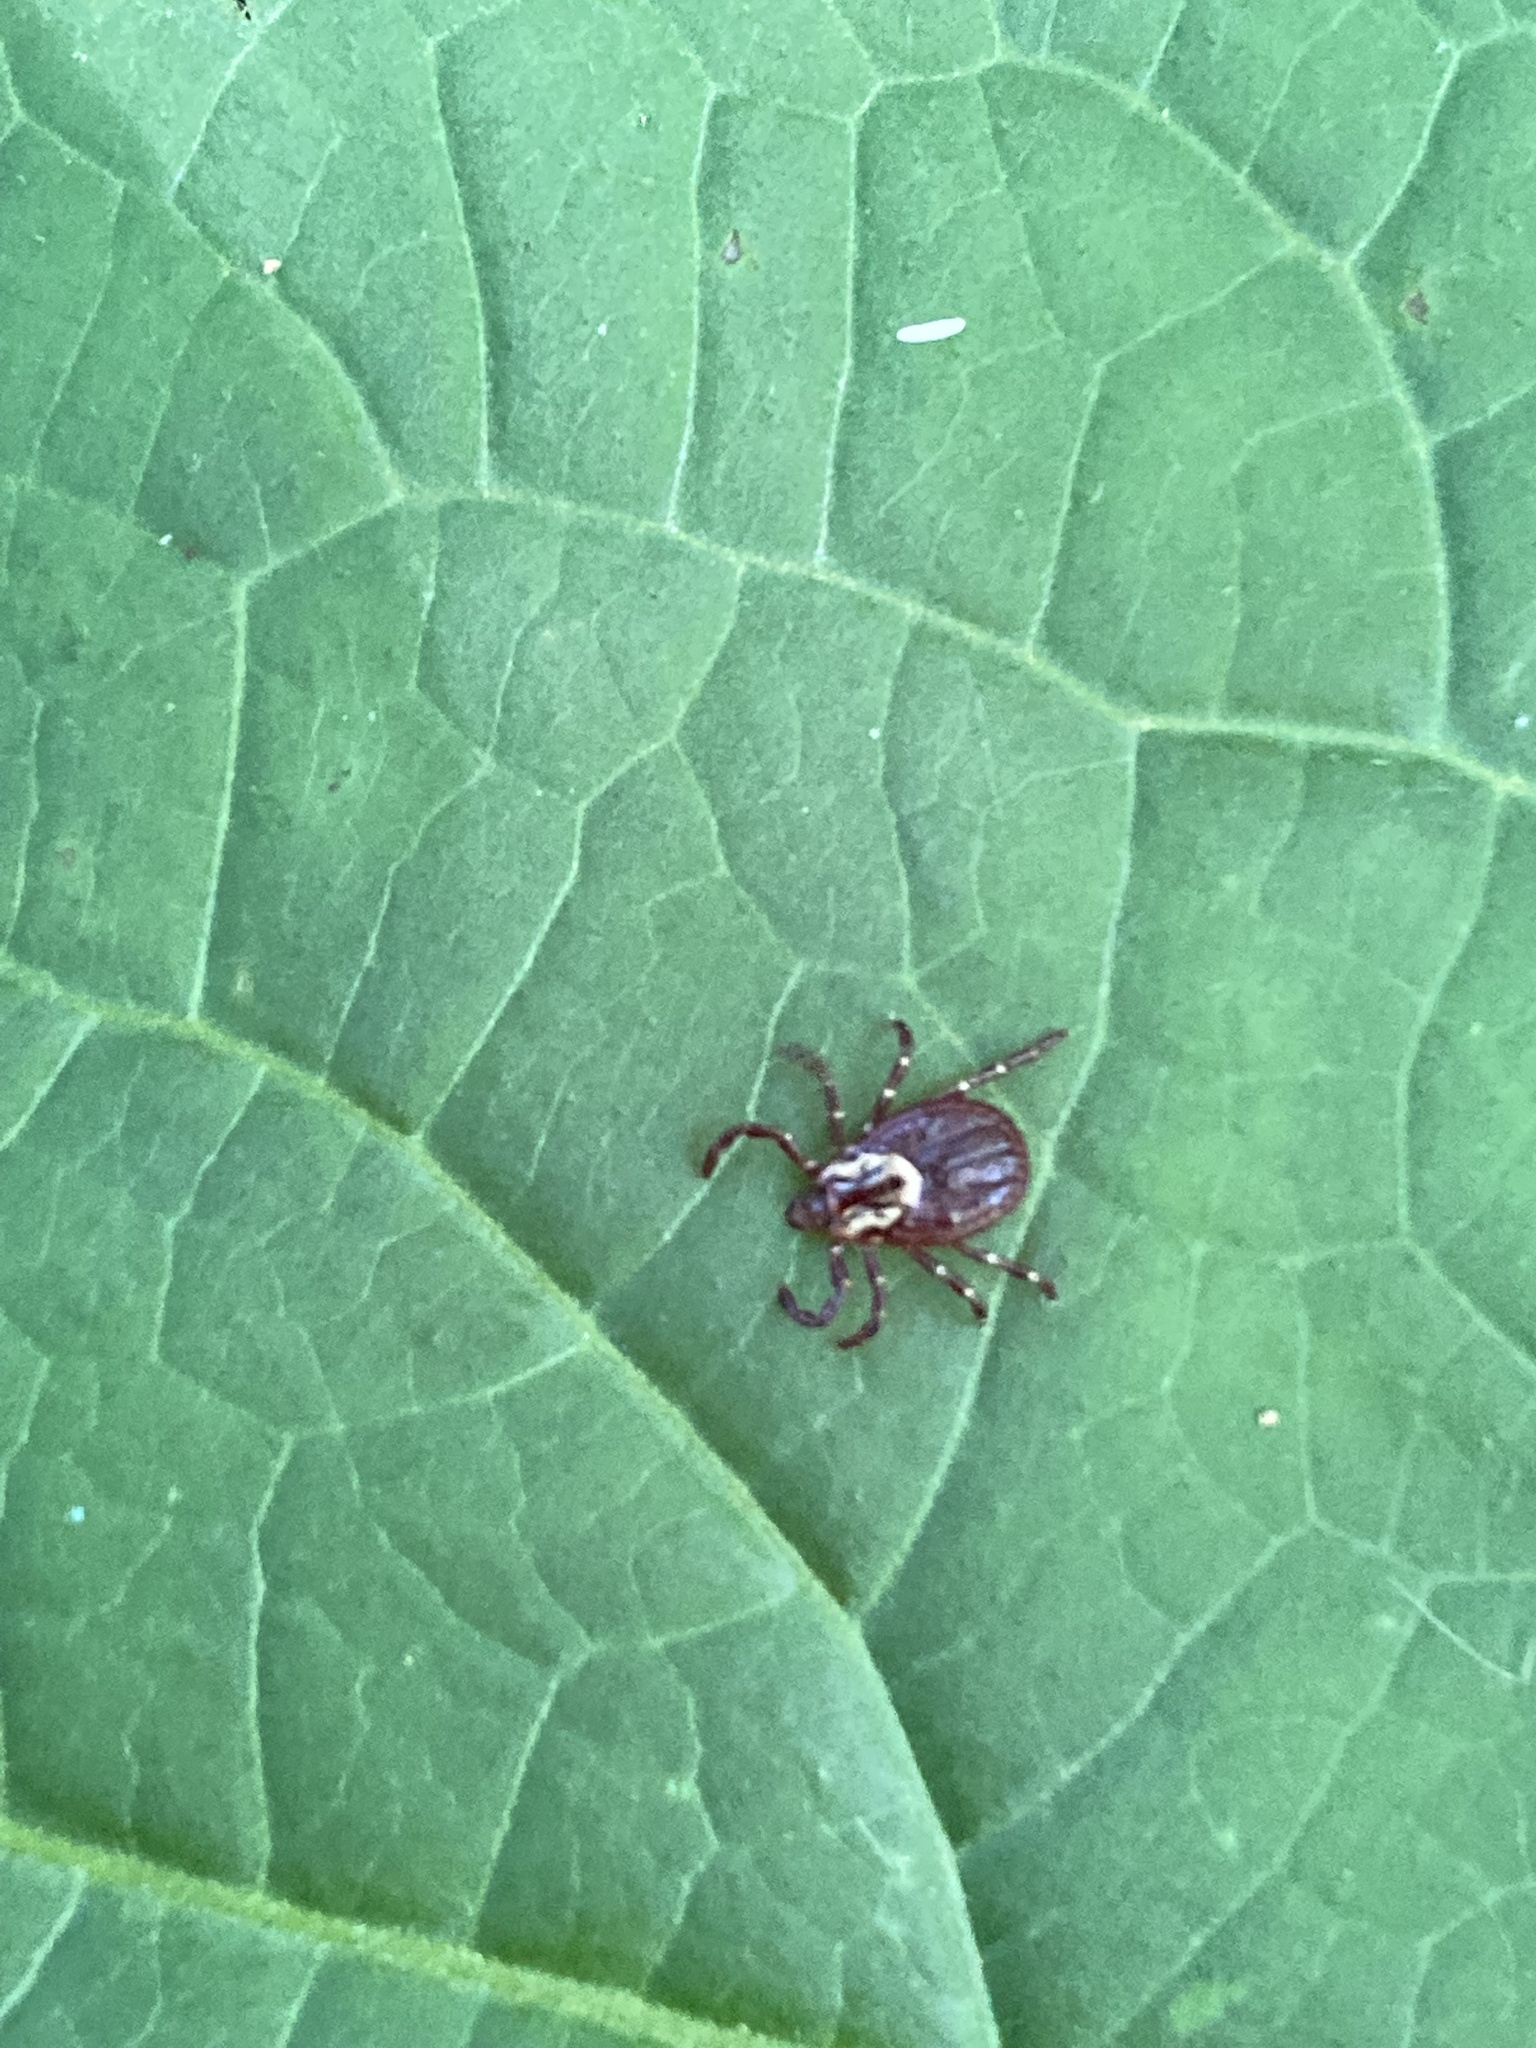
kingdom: Animalia
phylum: Arthropoda
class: Arachnida
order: Ixodida
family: Ixodidae
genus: Dermacentor
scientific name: Dermacentor variabilis
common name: American dog tick
